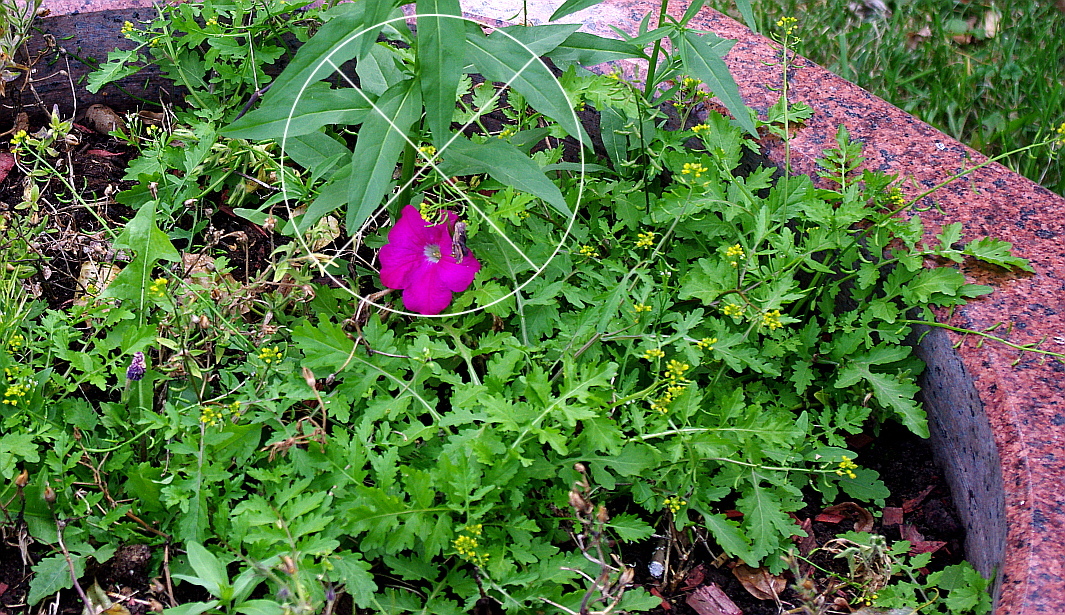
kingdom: Plantae
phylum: Tracheophyta
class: Magnoliopsida
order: Brassicales
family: Brassicaceae
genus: Rorippa
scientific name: Rorippa palustris
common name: Marsh yellow-cress
